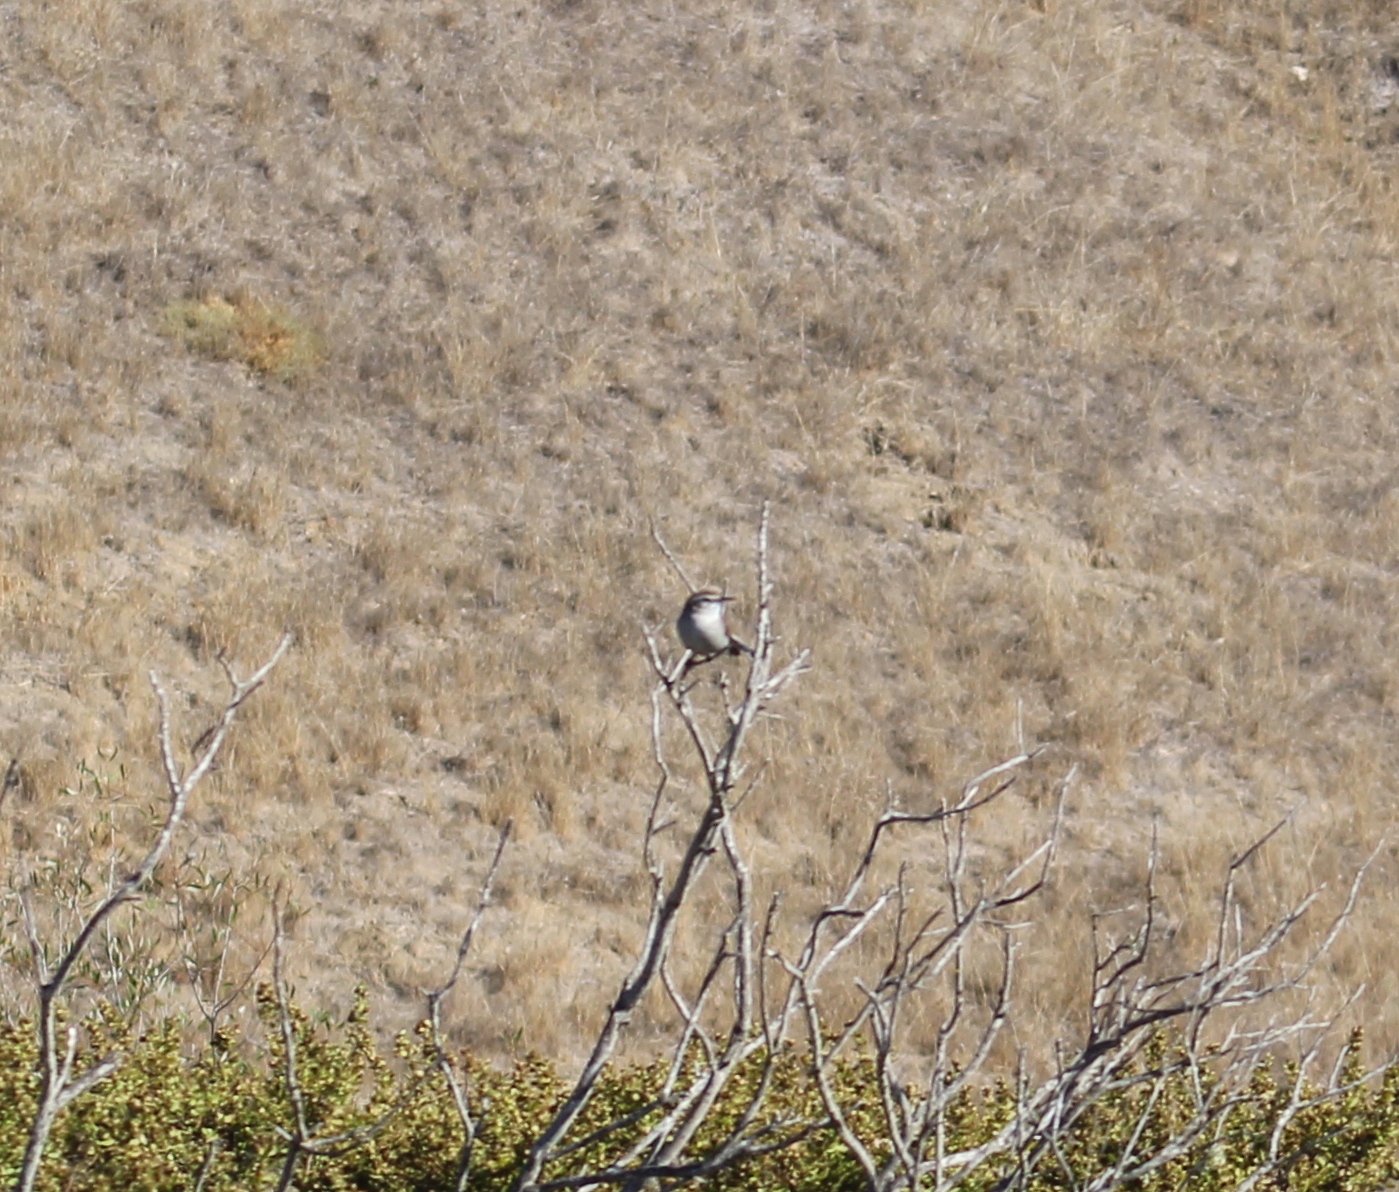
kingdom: Animalia
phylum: Chordata
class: Aves
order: Passeriformes
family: Troglodytidae
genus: Thryomanes
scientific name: Thryomanes bewickii
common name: Bewick's wren
